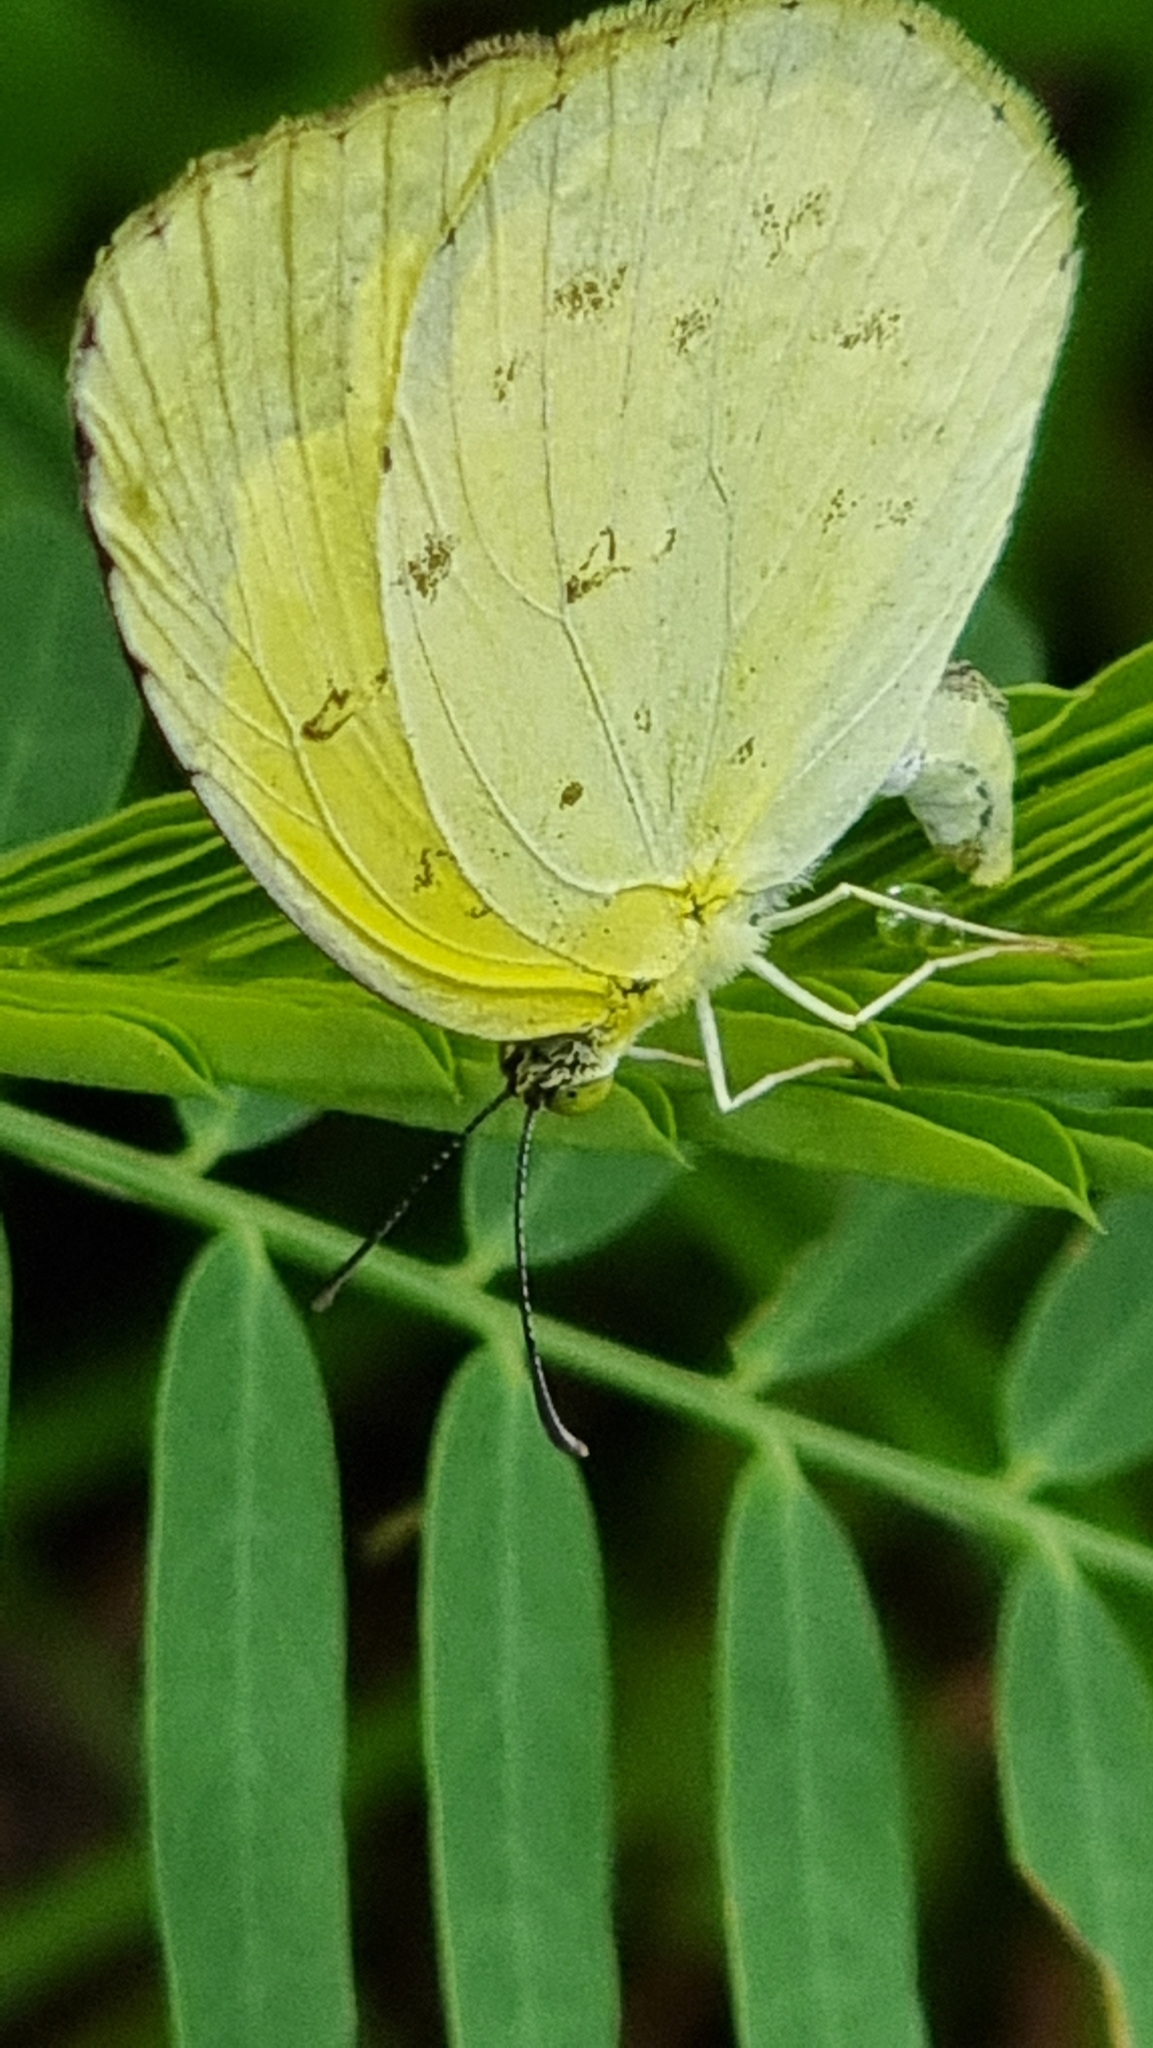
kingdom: Animalia
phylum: Arthropoda
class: Insecta
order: Lepidoptera
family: Pieridae
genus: Eurema
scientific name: Eurema hecabe
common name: Pale grass yellow
